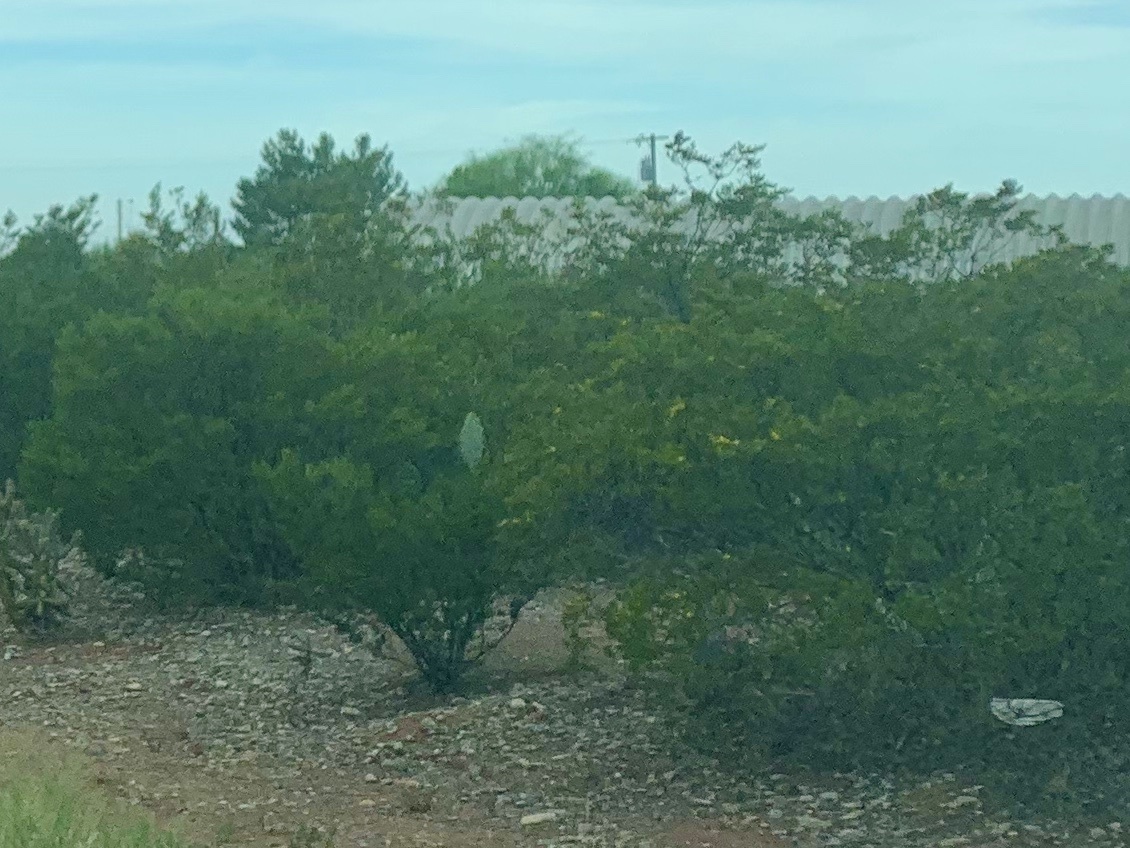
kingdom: Plantae
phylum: Tracheophyta
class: Magnoliopsida
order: Zygophyllales
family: Zygophyllaceae
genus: Larrea
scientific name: Larrea tridentata
